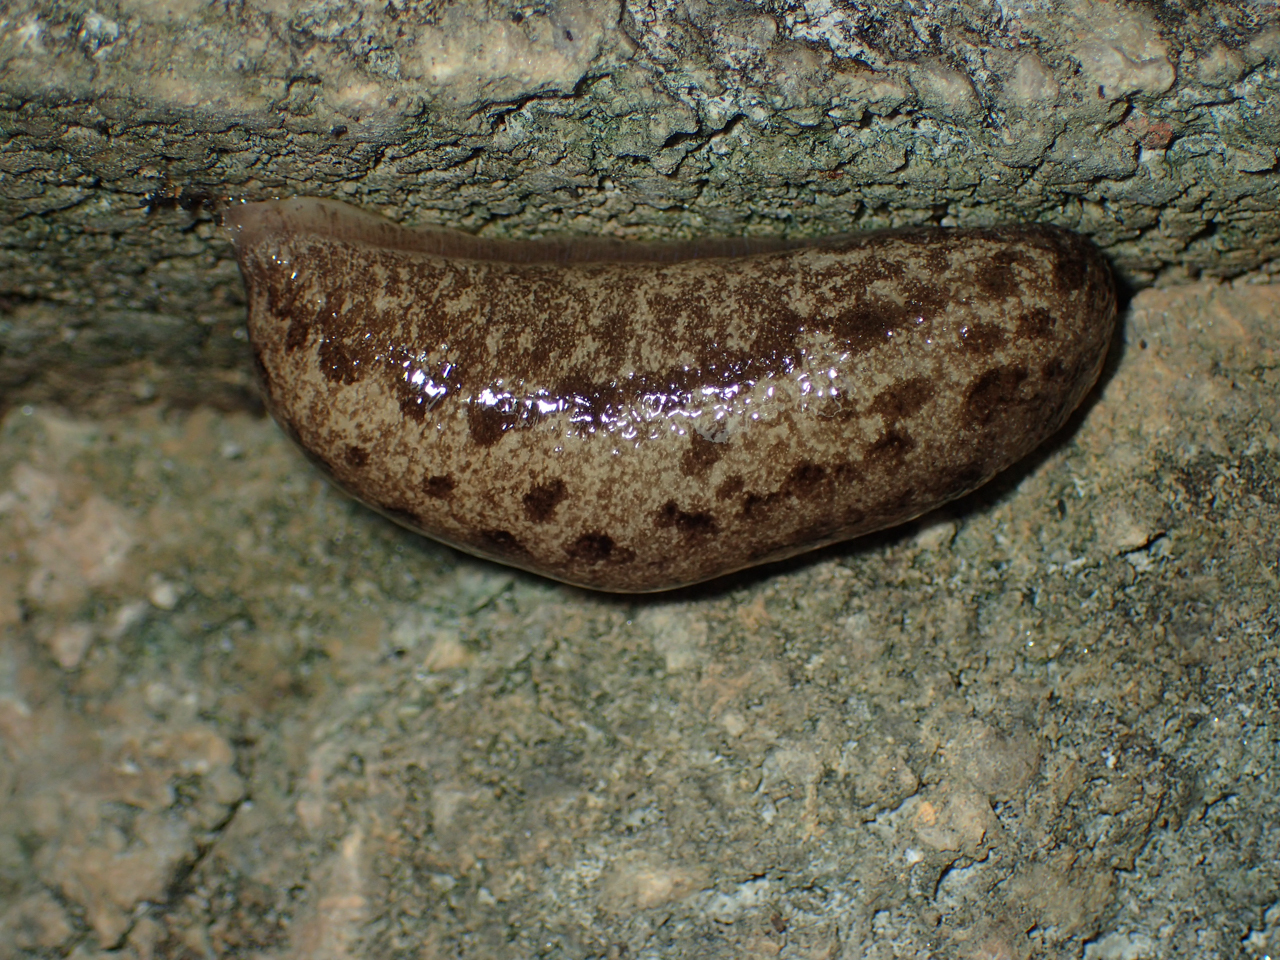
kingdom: Animalia
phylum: Mollusca
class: Gastropoda
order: Stylommatophora
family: Philomycidae
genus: Megapallifera
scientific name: Megapallifera mutabilis
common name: Changeable mantleslug
